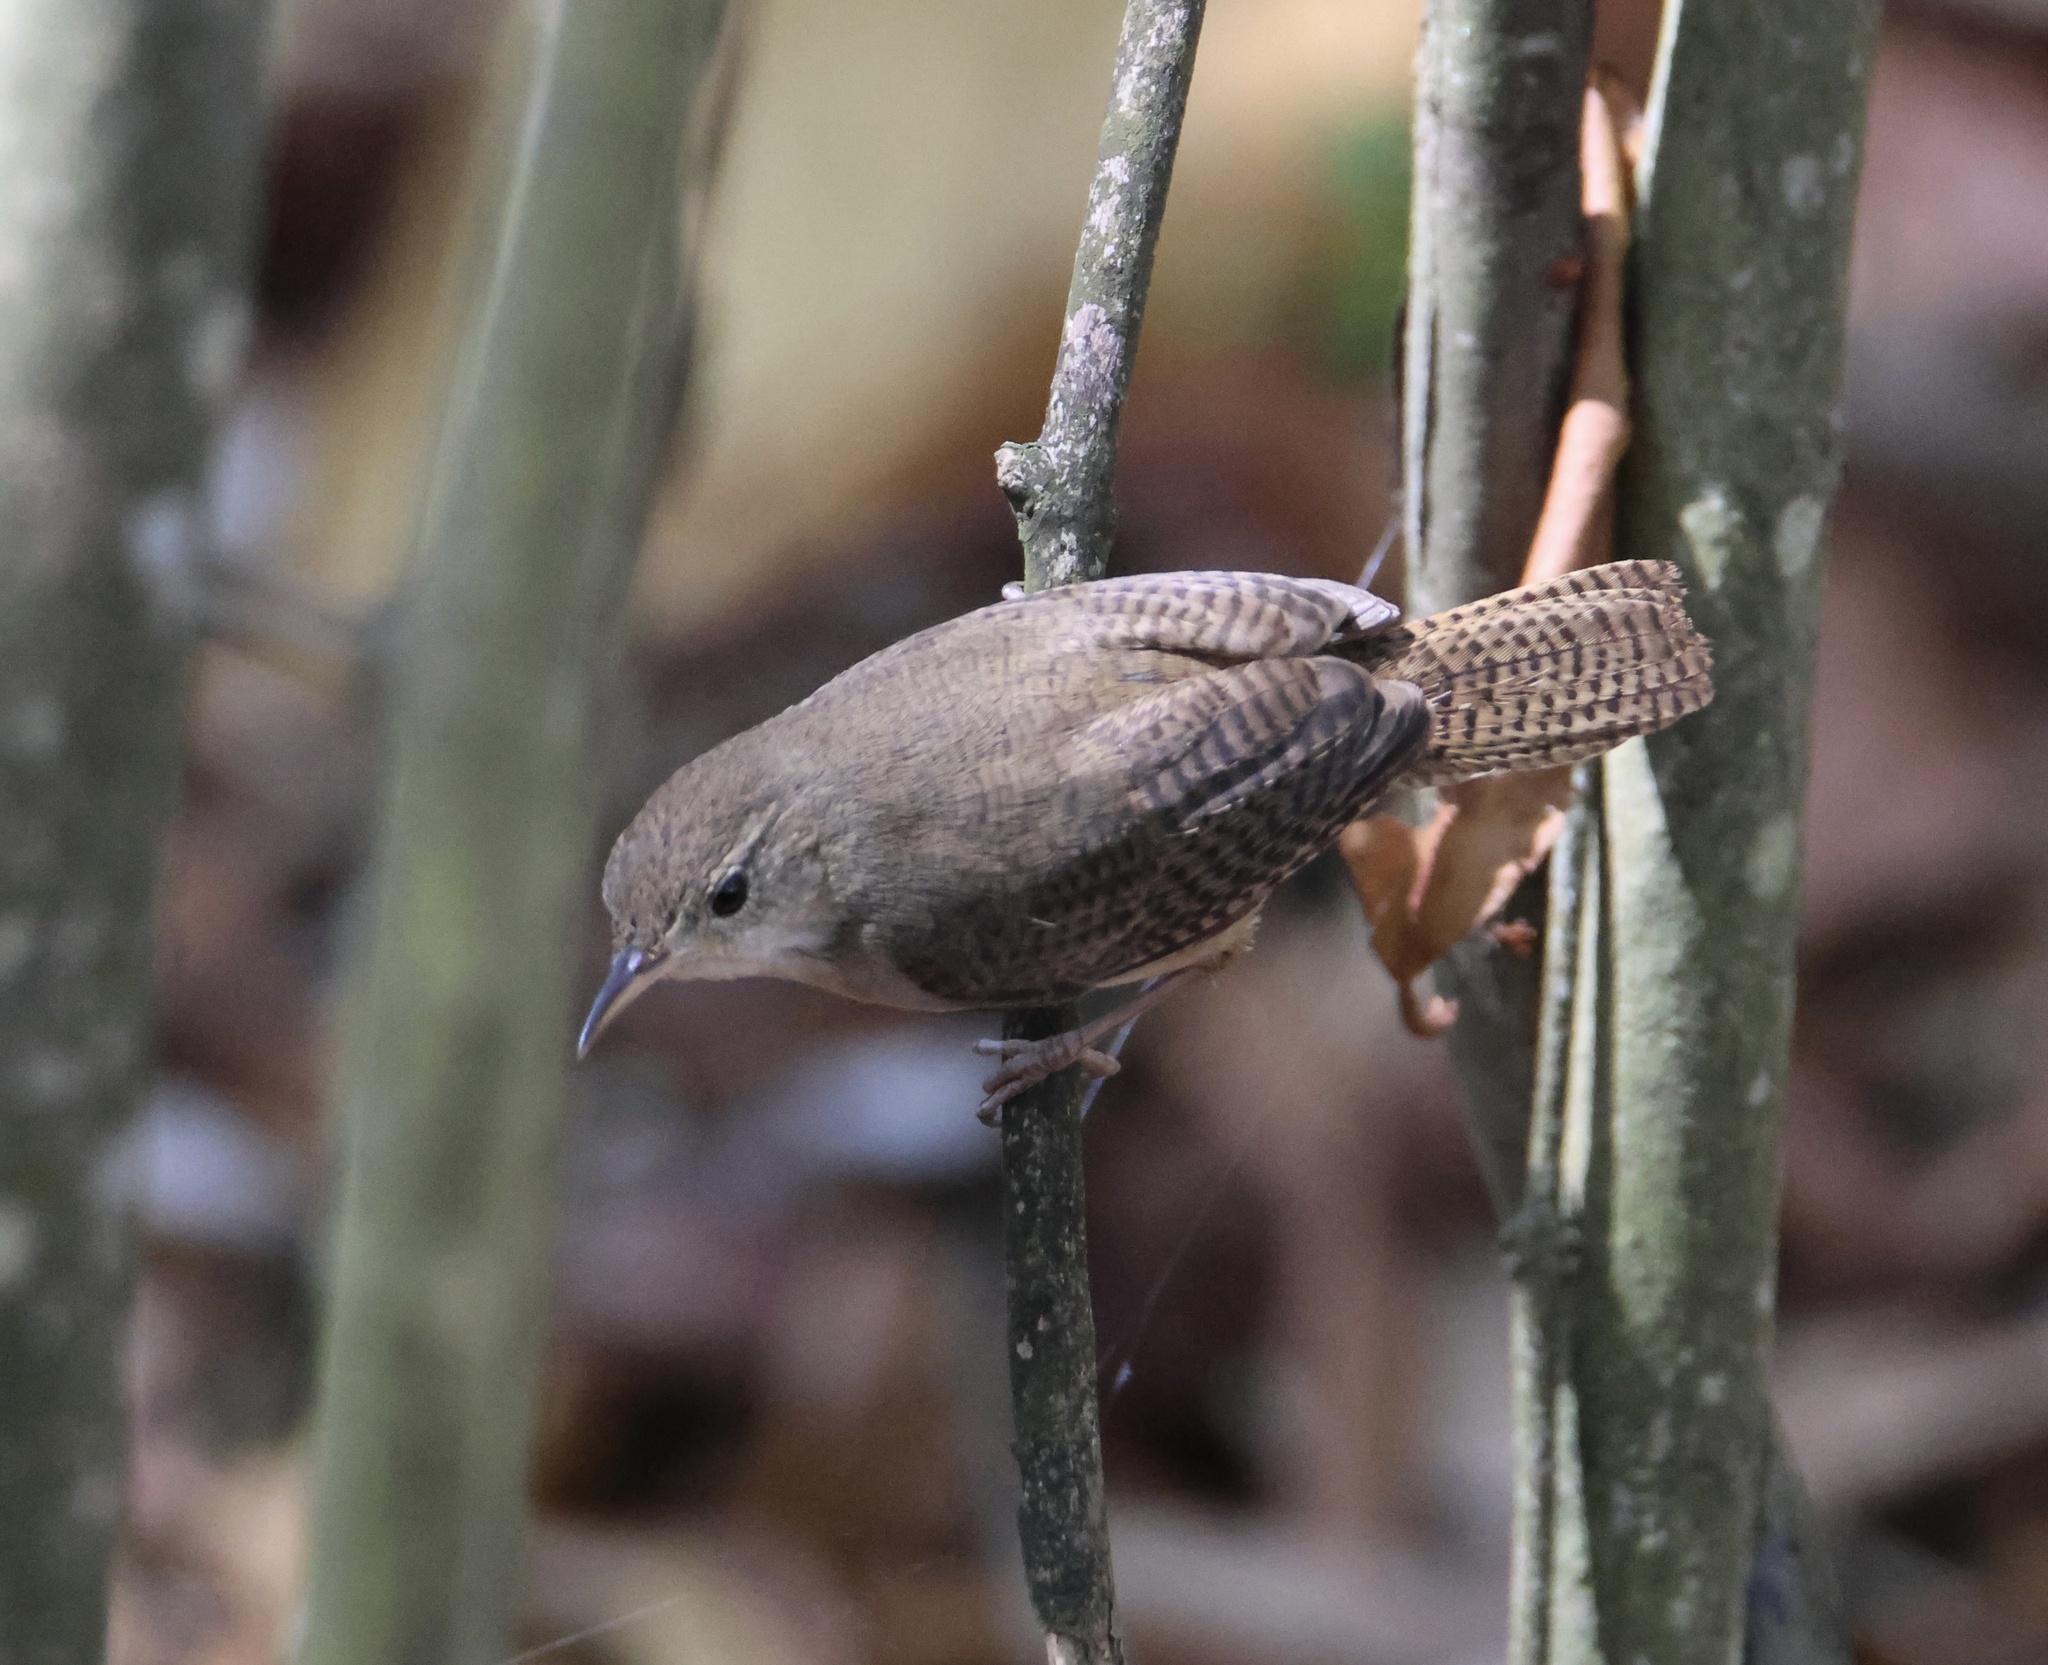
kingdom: Animalia
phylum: Chordata
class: Aves
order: Passeriformes
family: Troglodytidae
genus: Troglodytes
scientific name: Troglodytes aedon
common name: House wren
